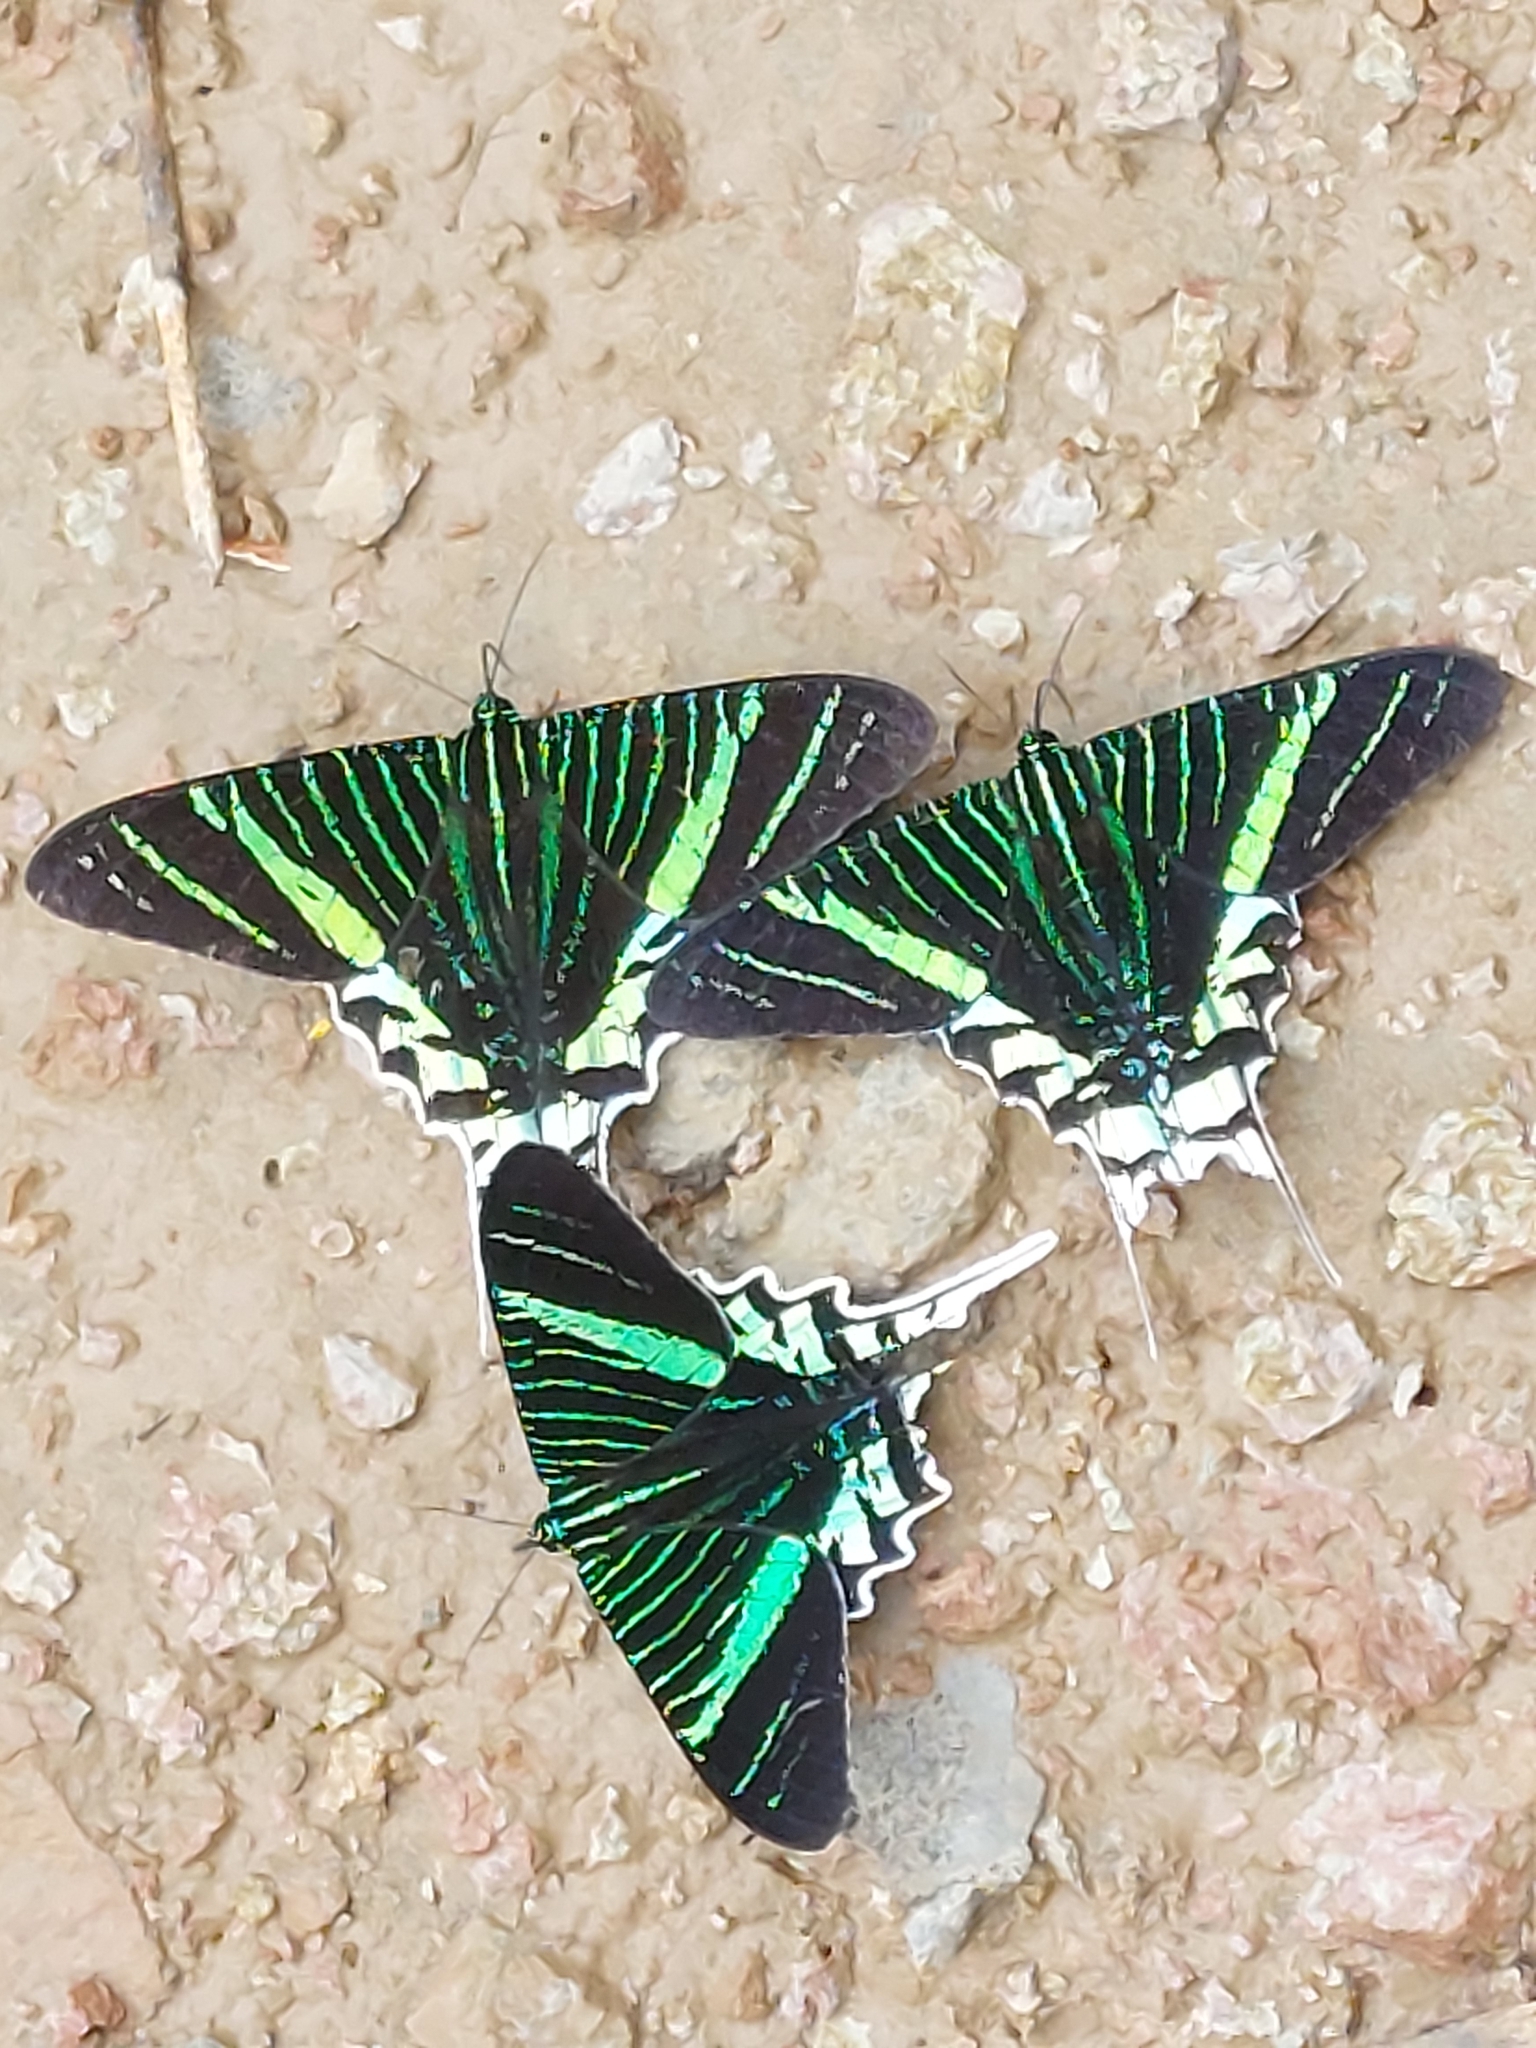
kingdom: Animalia
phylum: Arthropoda
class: Insecta
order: Lepidoptera
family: Uraniidae
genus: Urania
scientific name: Urania leilus
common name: Peacock moth
